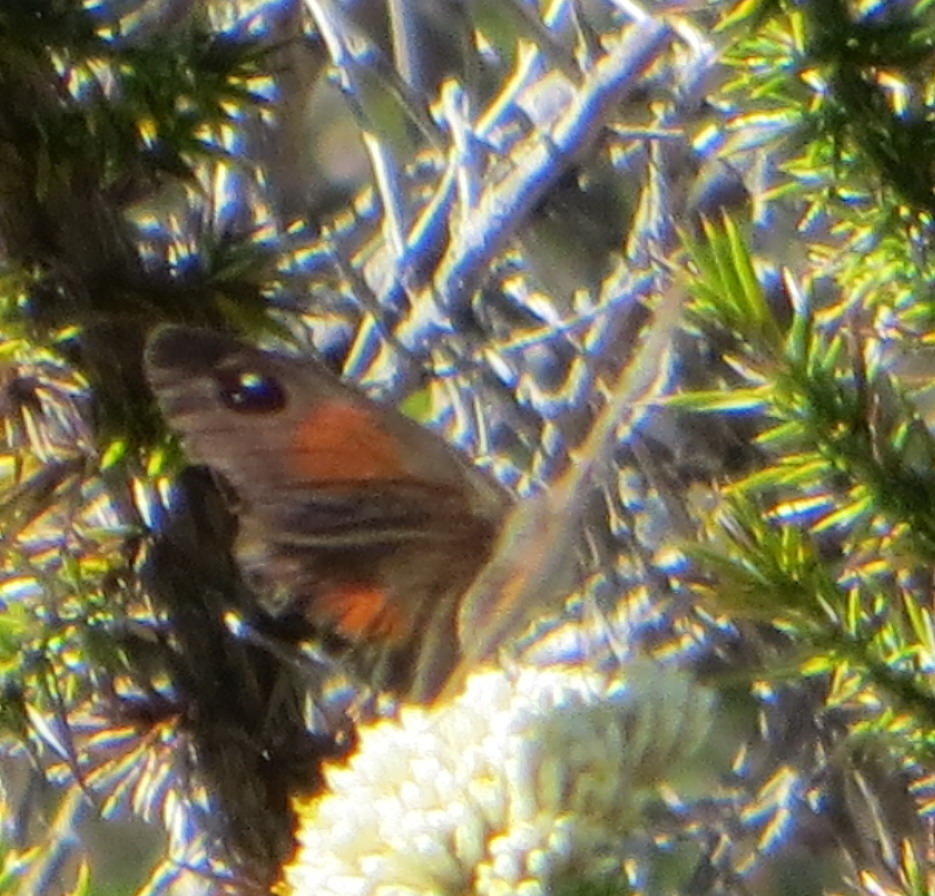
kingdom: Animalia
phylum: Arthropoda
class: Insecta
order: Lepidoptera
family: Nymphalidae
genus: Stygionympha
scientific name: Stygionympha vigilans
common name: Western hillside brown
